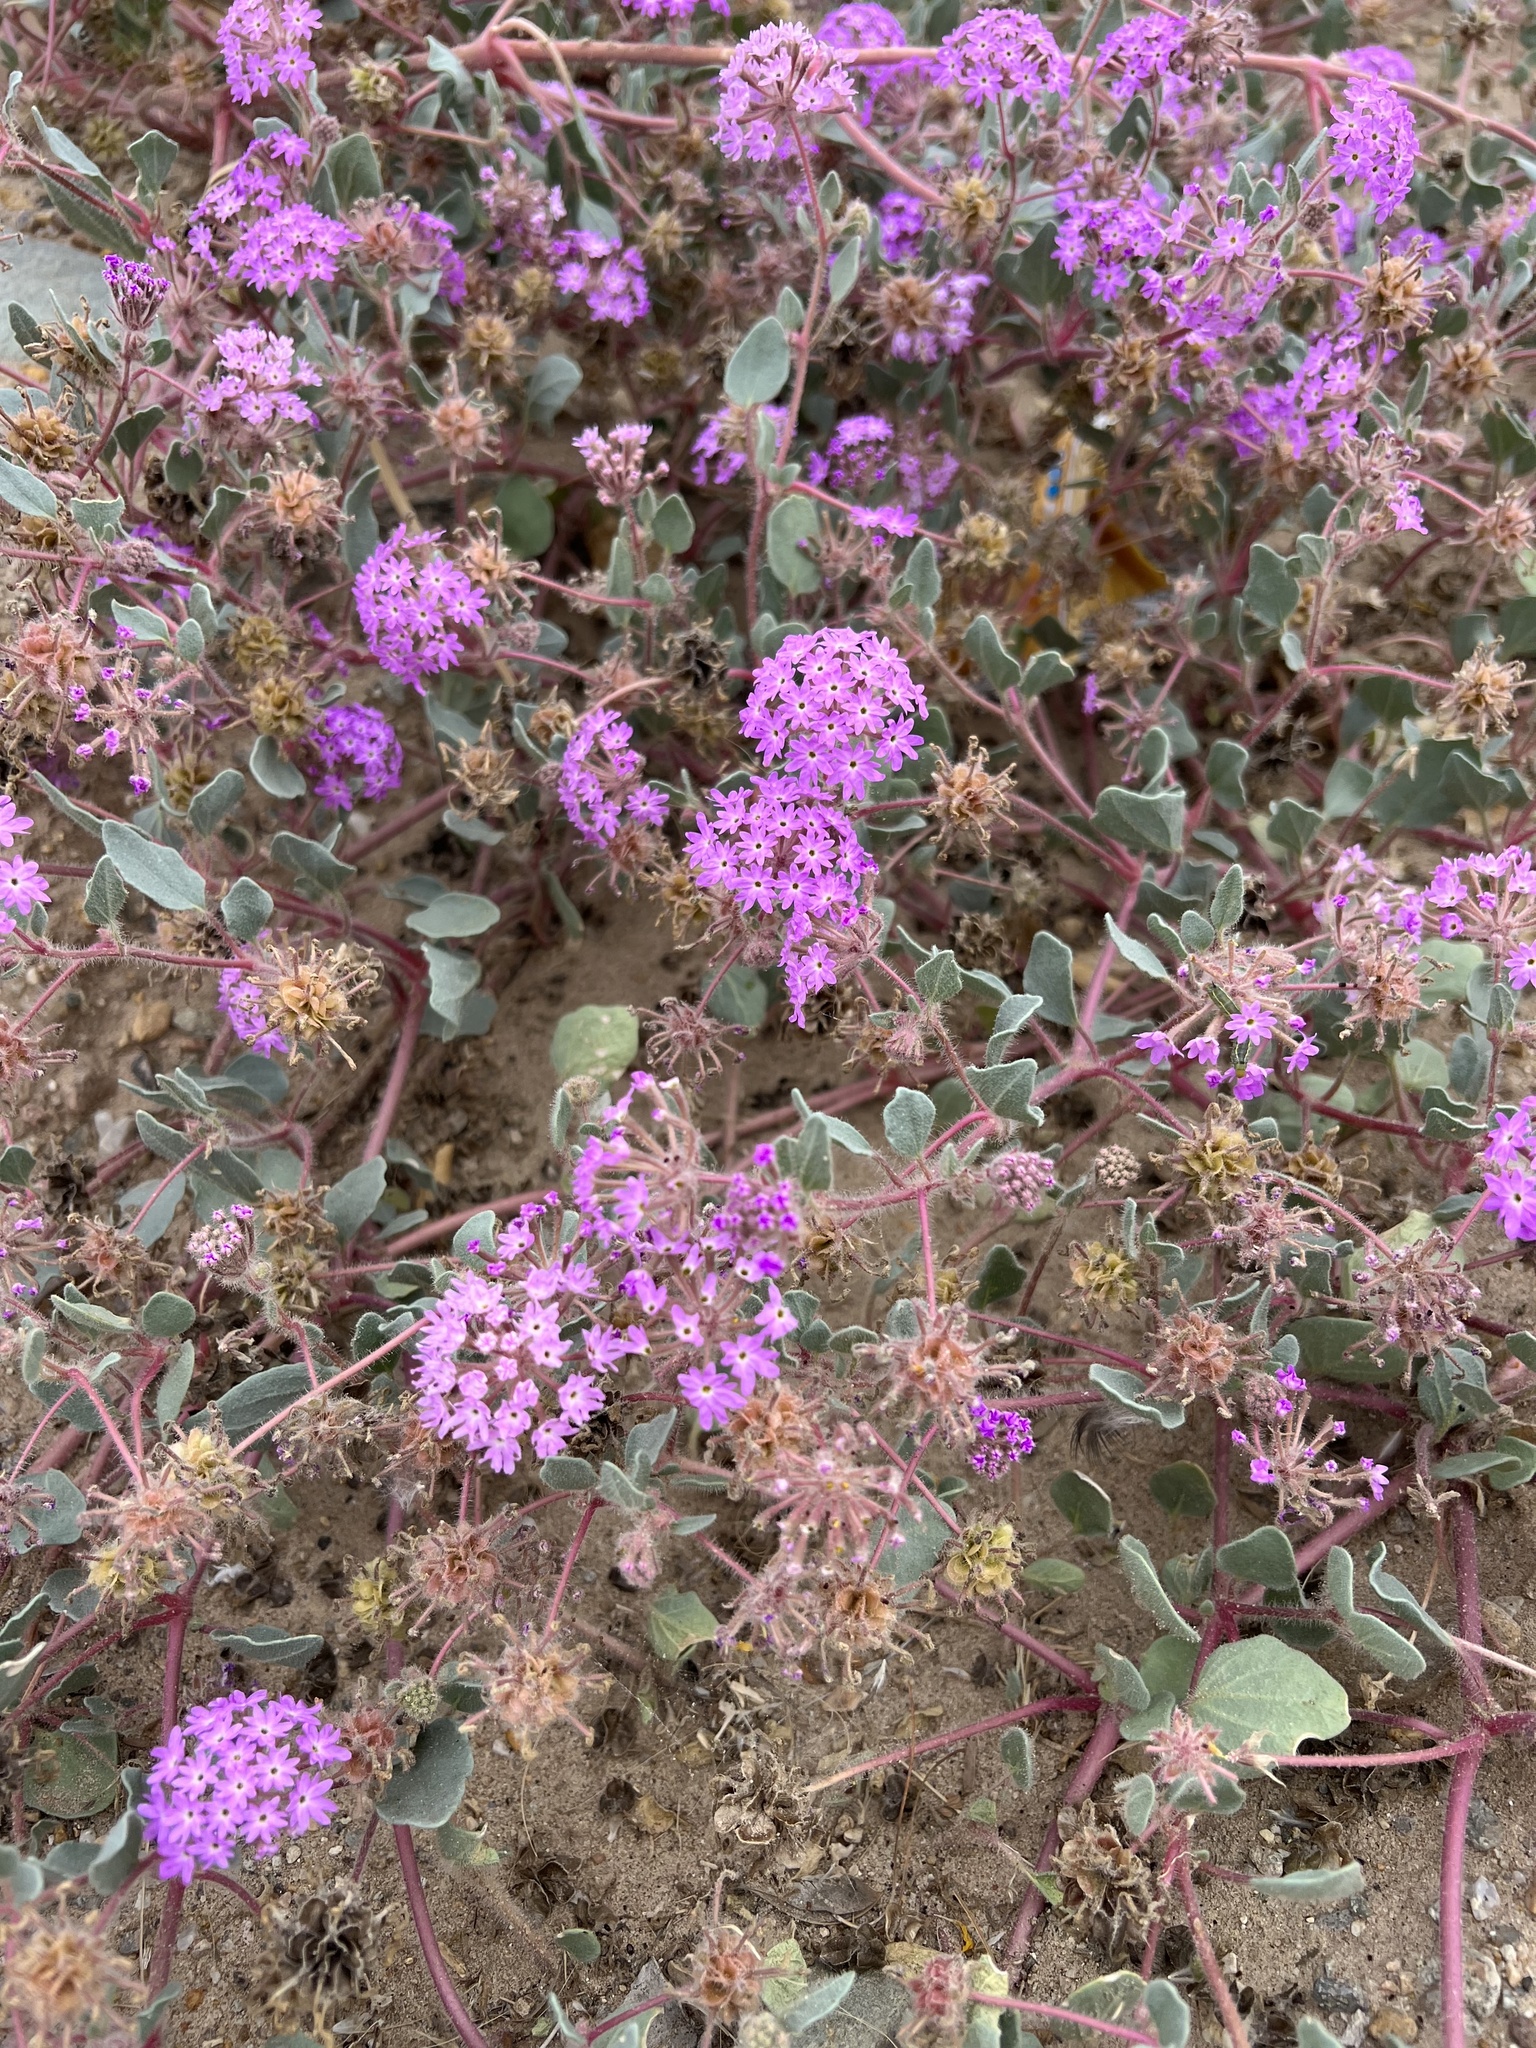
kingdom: Plantae
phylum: Tracheophyta
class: Magnoliopsida
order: Caryophyllales
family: Nyctaginaceae
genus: Abronia
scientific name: Abronia villosa
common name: Desert sand-verbena
